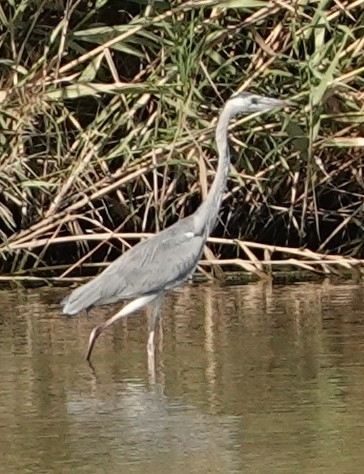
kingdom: Animalia
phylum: Chordata
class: Aves
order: Pelecaniformes
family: Ardeidae
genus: Ardea
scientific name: Ardea cinerea
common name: Grey heron
